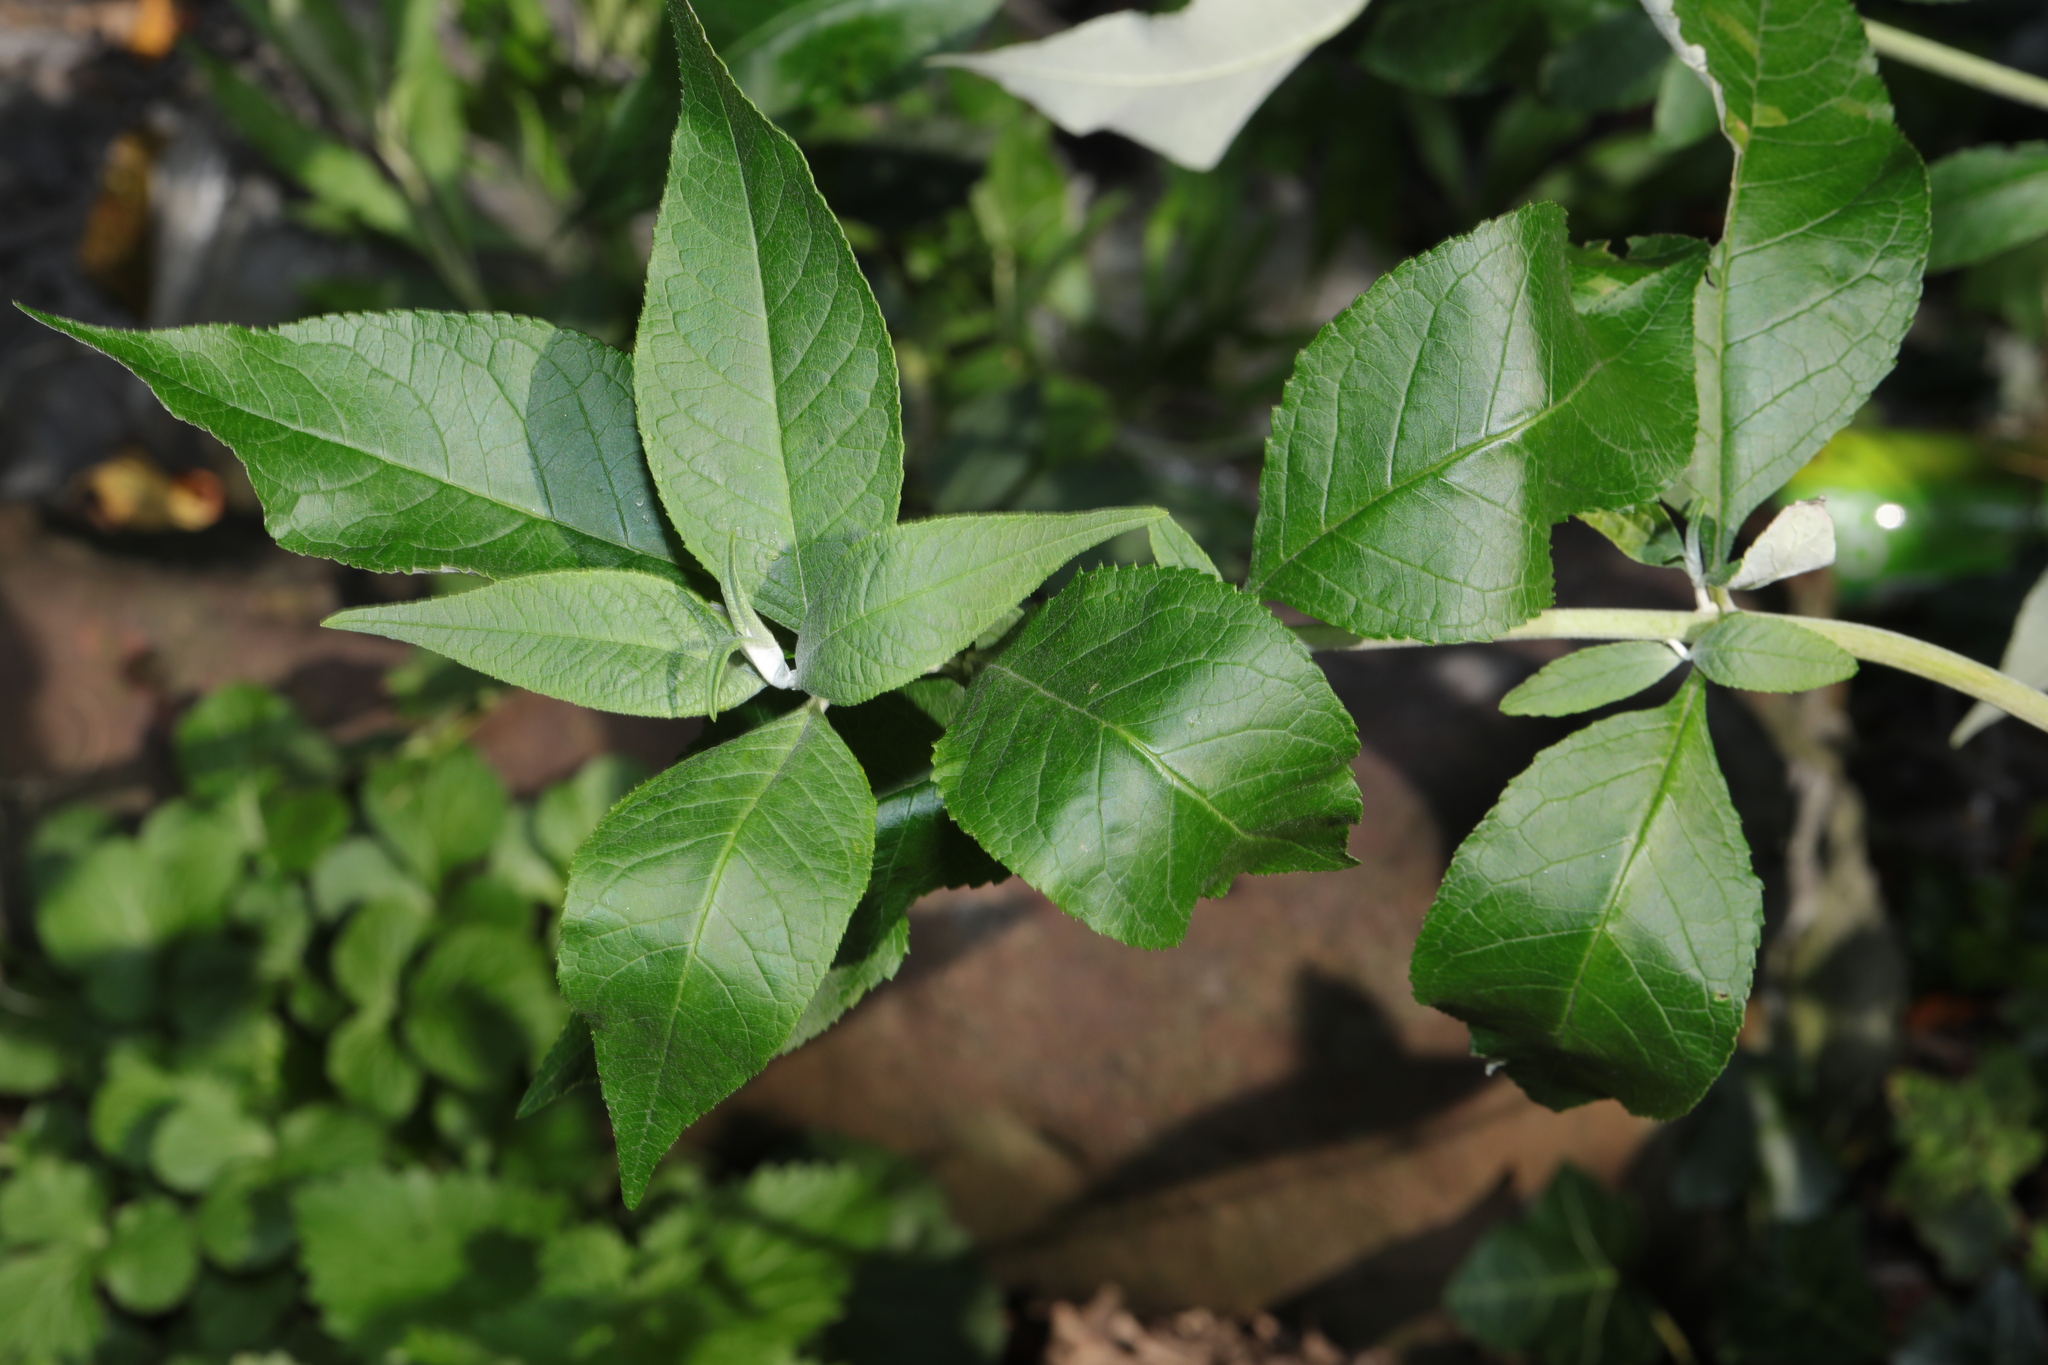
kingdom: Plantae
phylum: Tracheophyta
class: Magnoliopsida
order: Lamiales
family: Scrophulariaceae
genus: Buddleja
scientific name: Buddleja davidii
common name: Butterfly-bush
